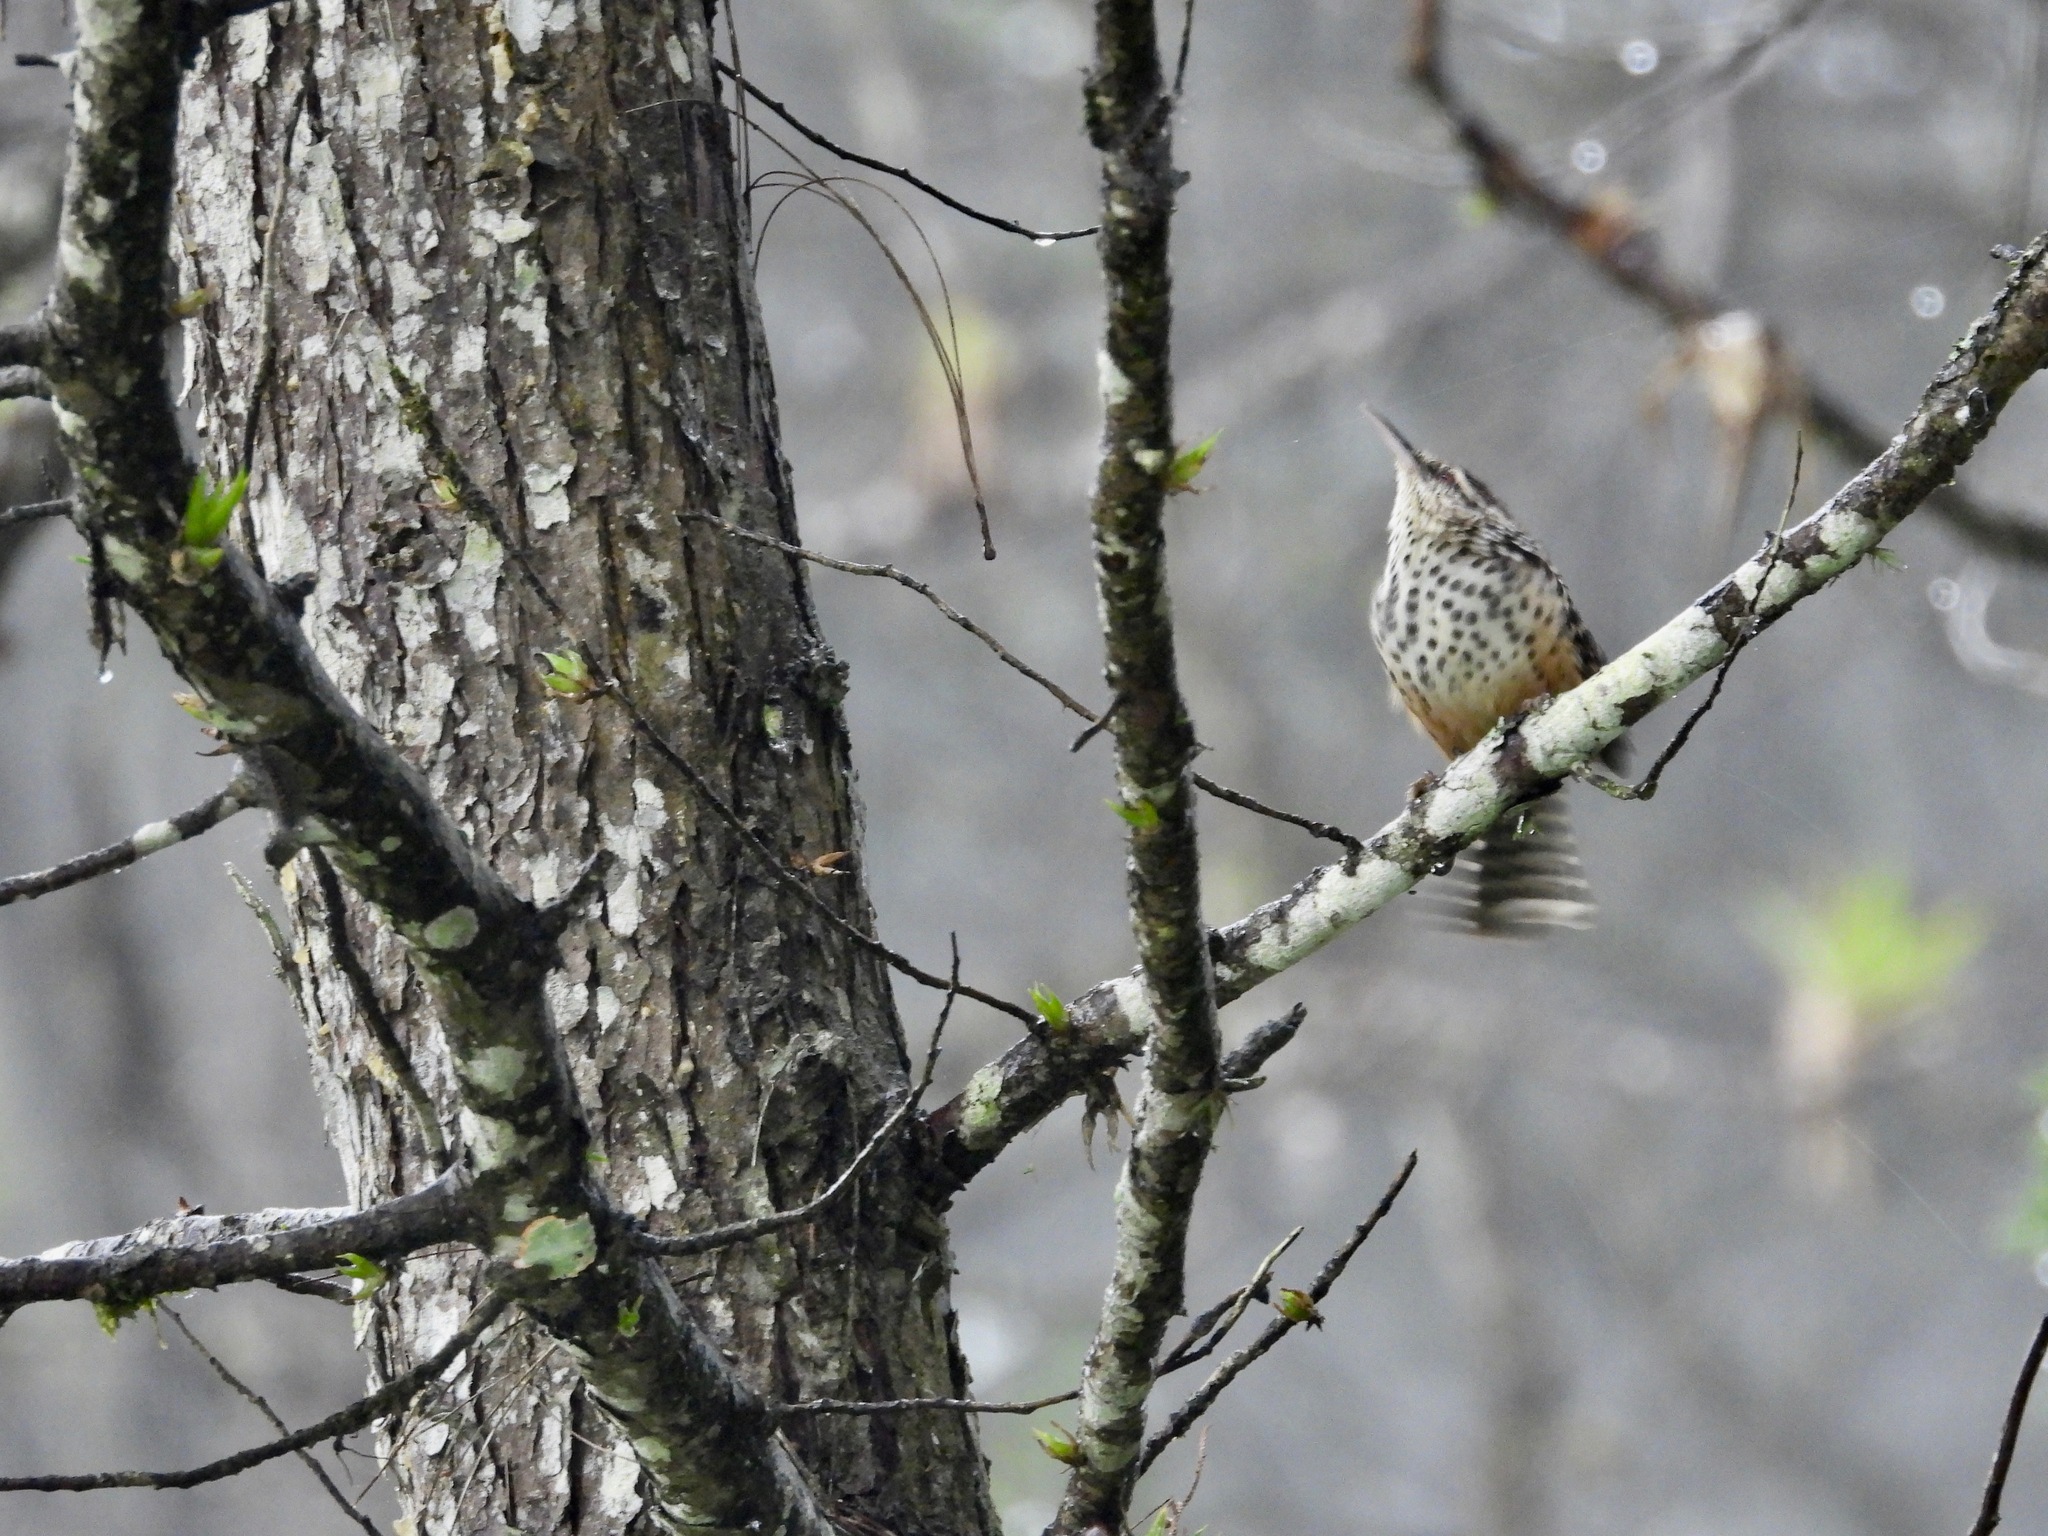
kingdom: Animalia
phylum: Chordata
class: Aves
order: Passeriformes
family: Troglodytidae
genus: Campylorhynchus
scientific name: Campylorhynchus zonatus
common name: Band-backed wren
